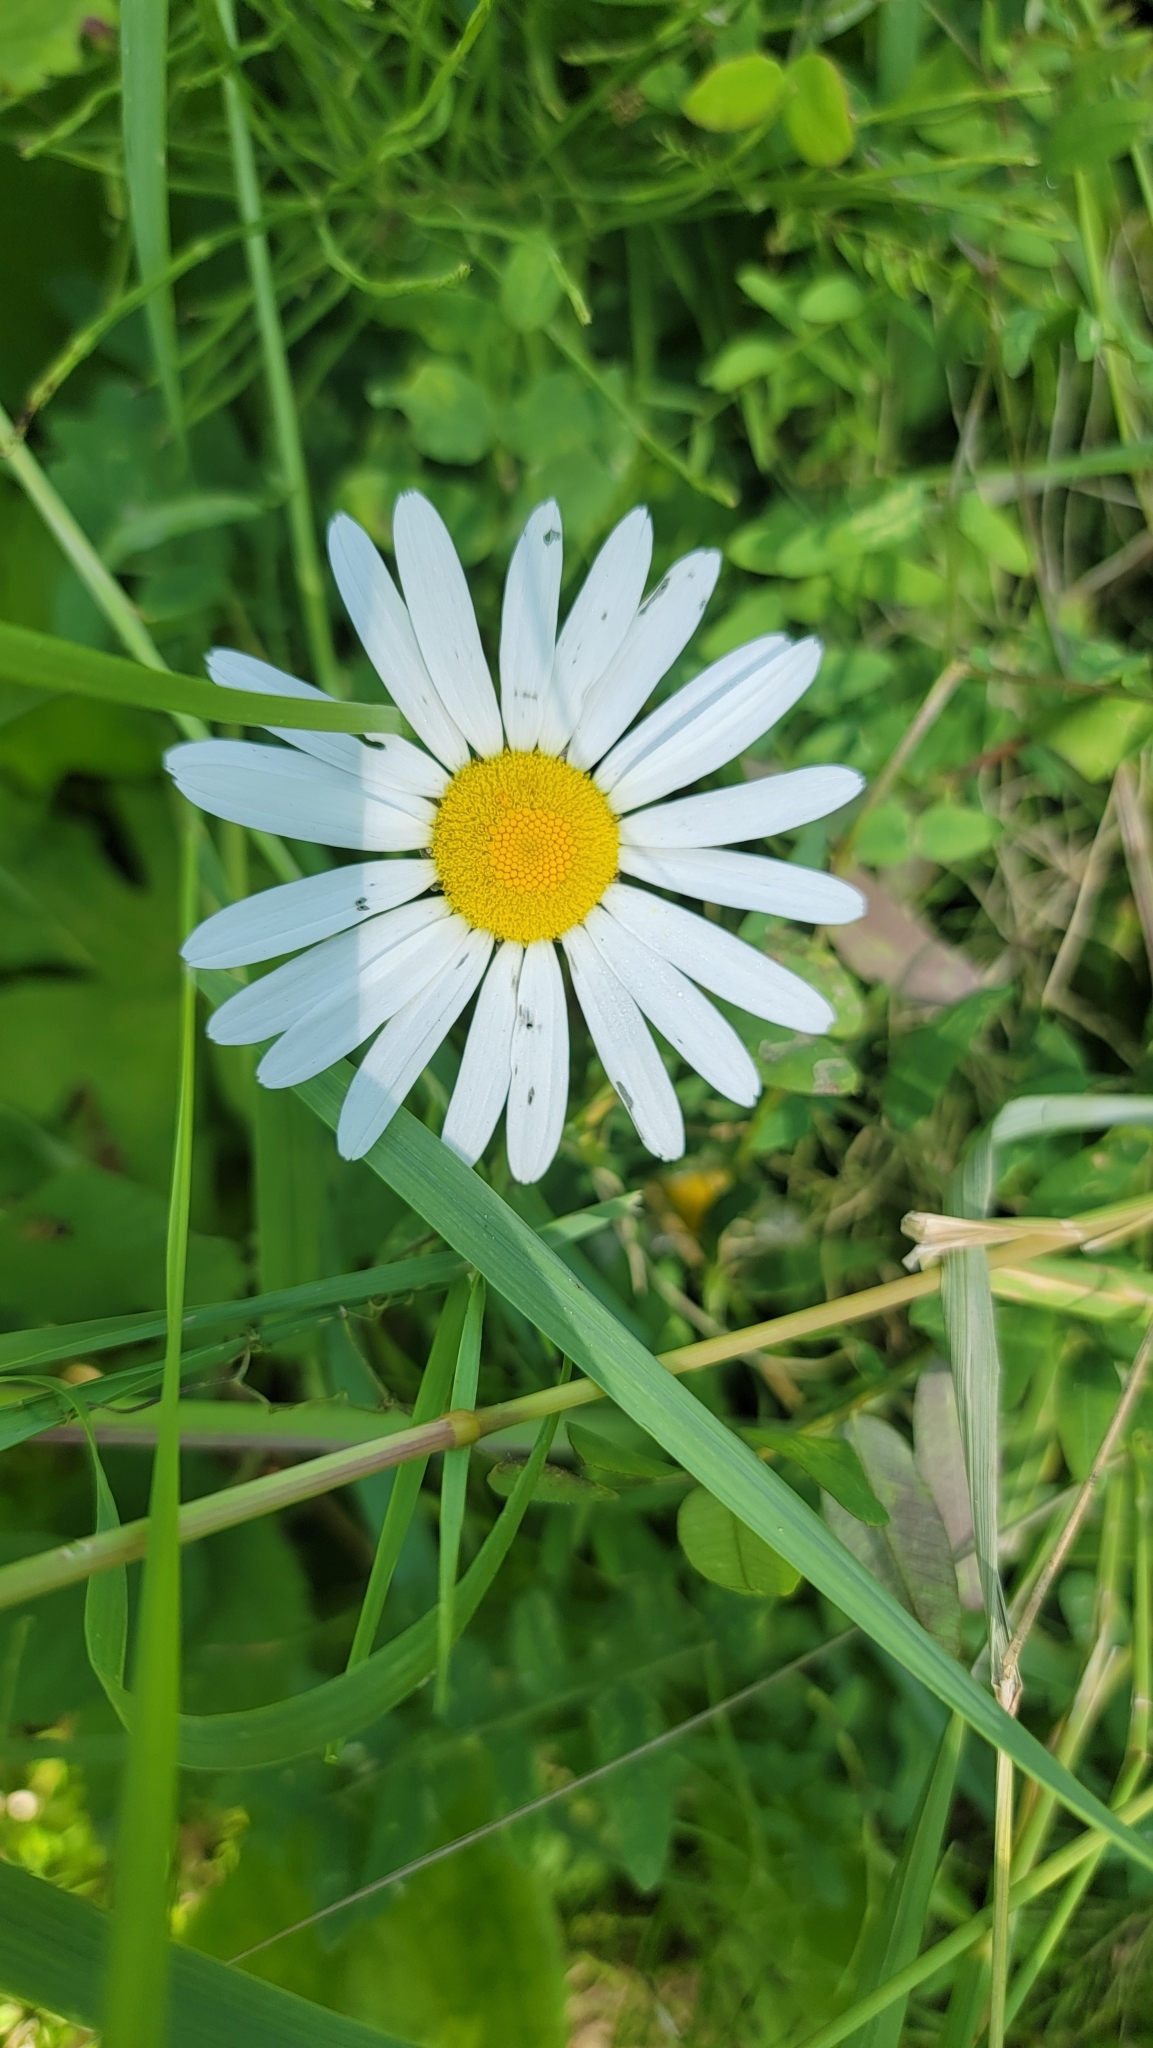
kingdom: Plantae
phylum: Tracheophyta
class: Magnoliopsida
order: Asterales
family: Asteraceae
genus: Leucanthemum
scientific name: Leucanthemum vulgare
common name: Oxeye daisy
